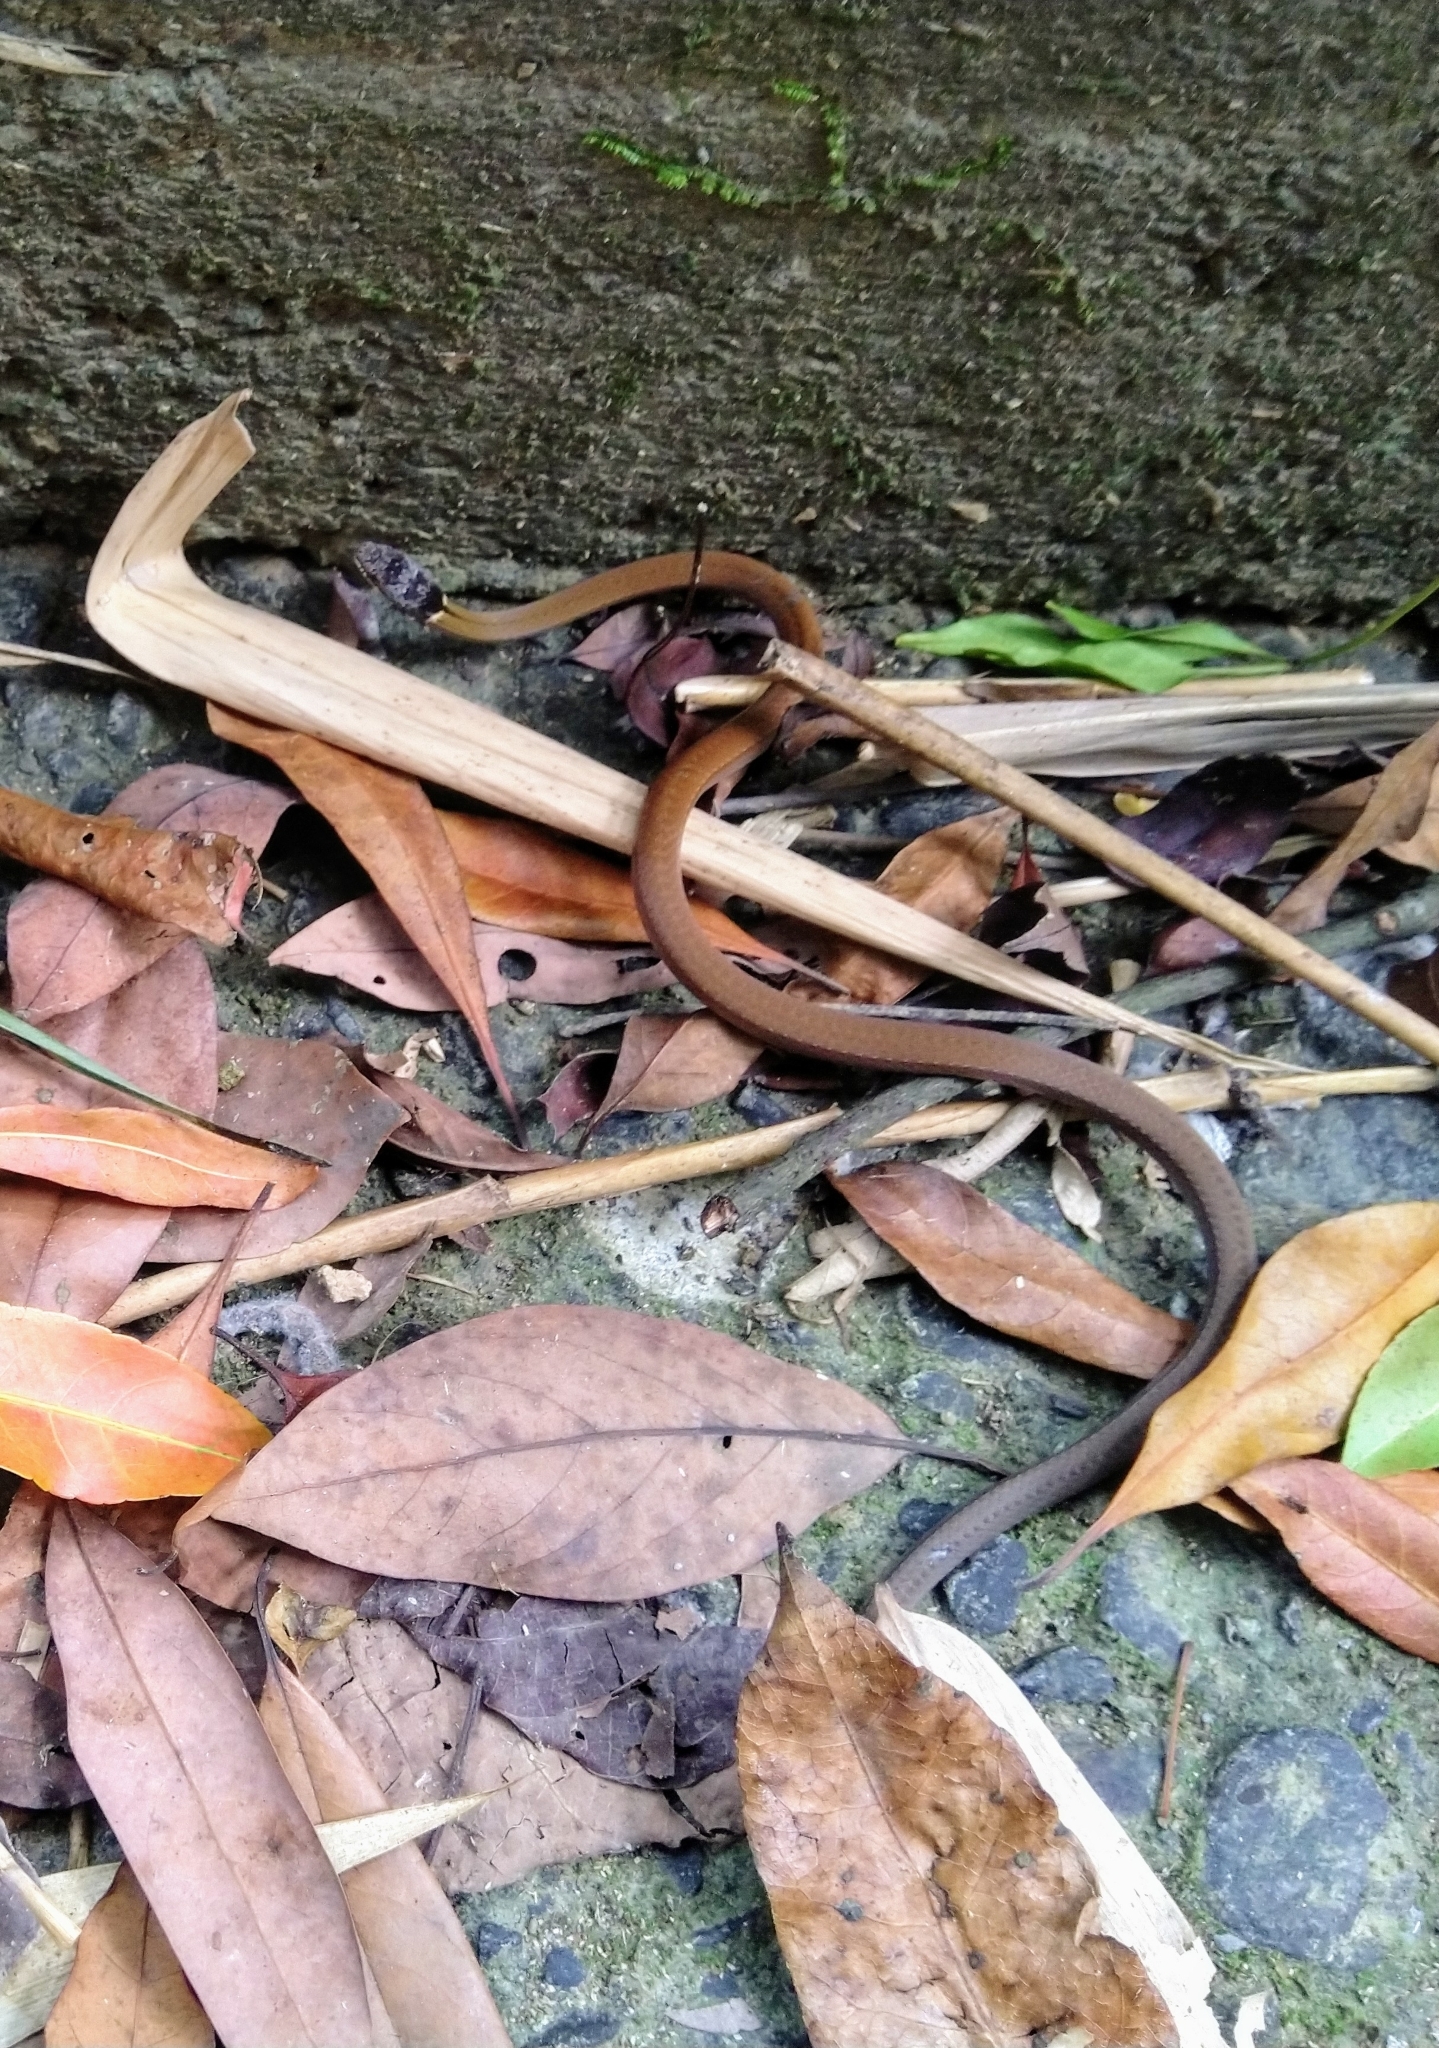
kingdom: Animalia
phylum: Chordata
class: Squamata
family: Colubridae
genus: Sibynophis
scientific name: Sibynophis chinensis
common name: Chinese many-tooth snake
